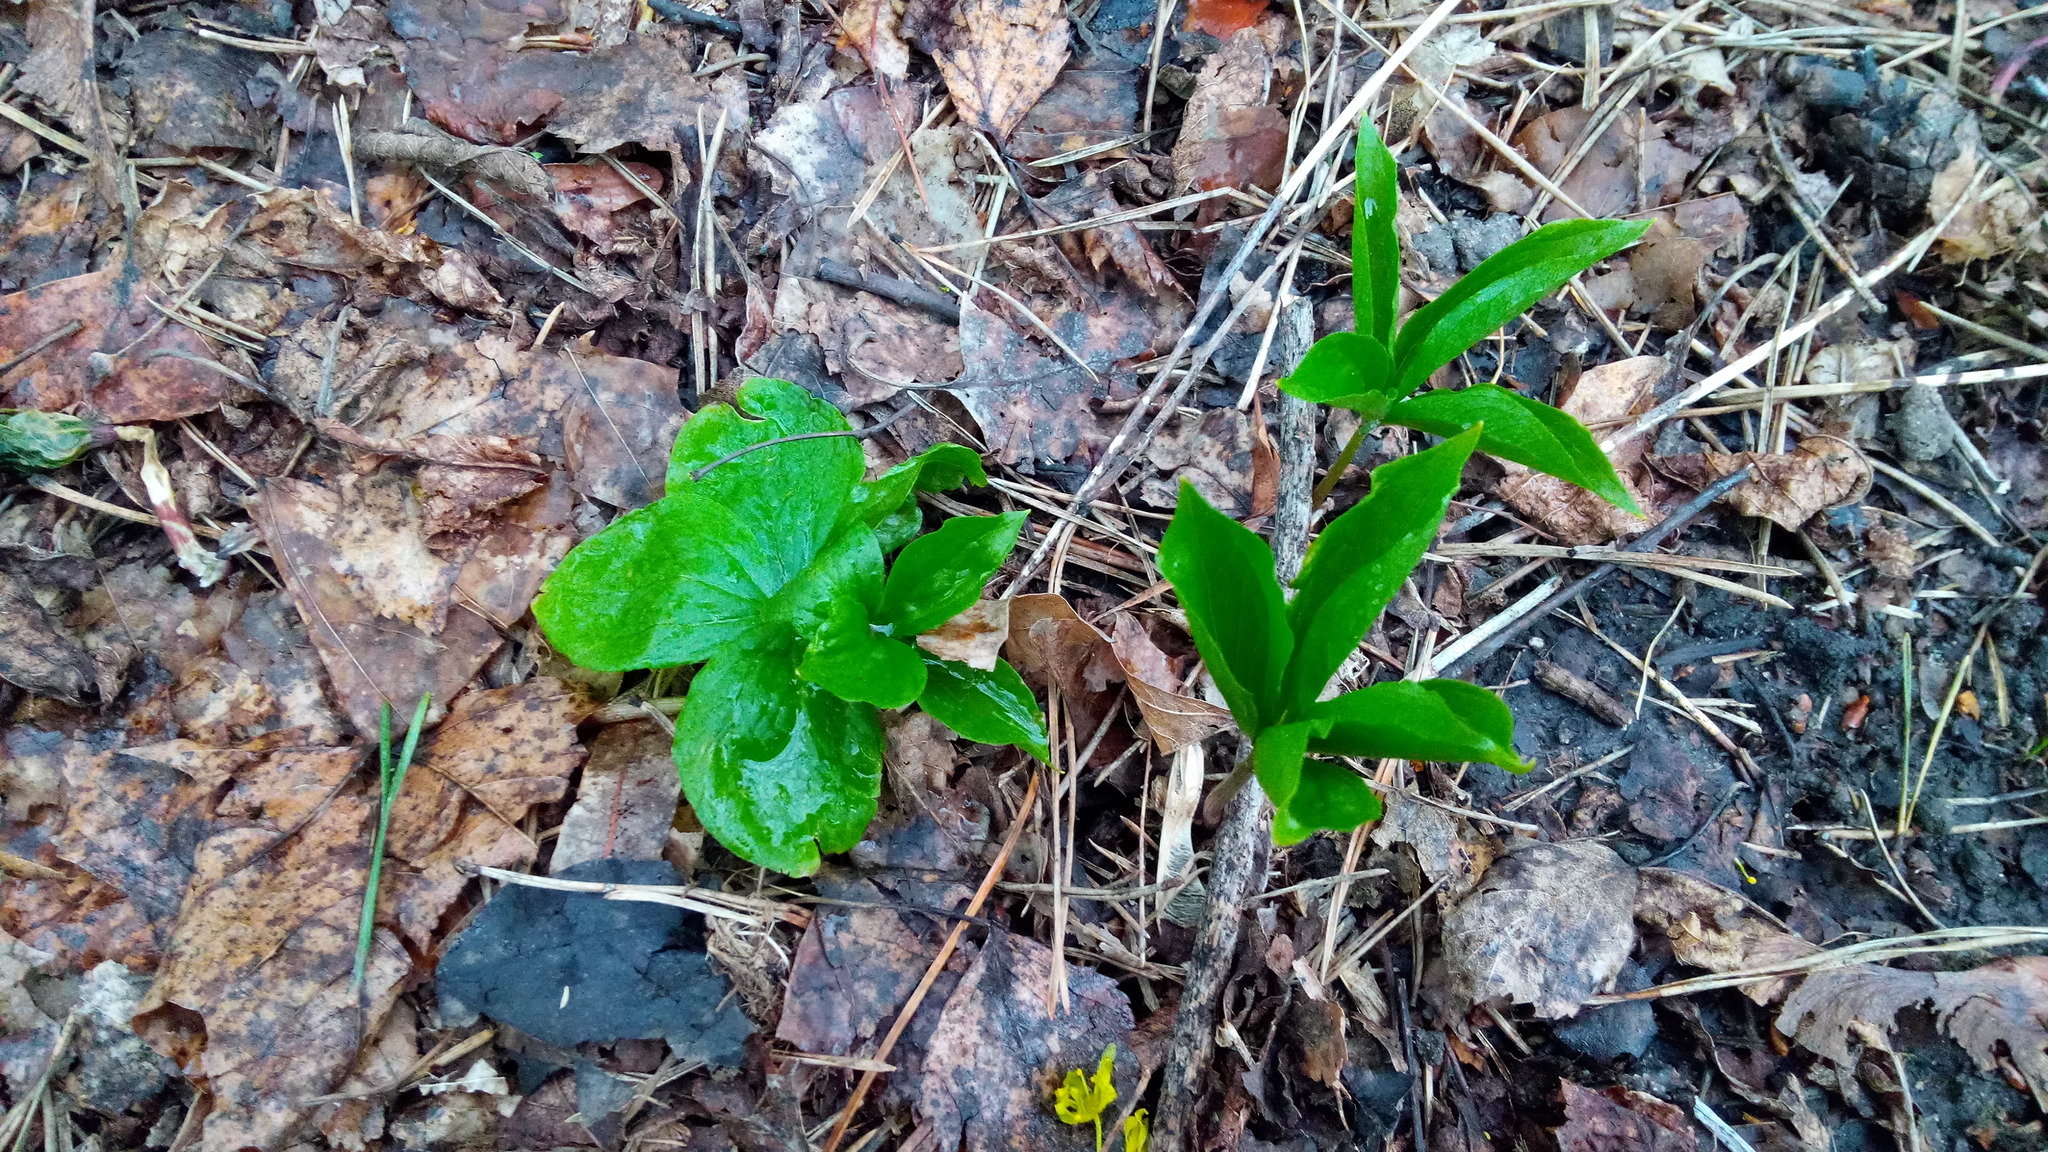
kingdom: Plantae
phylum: Tracheophyta
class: Liliopsida
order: Liliales
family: Melanthiaceae
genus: Paris
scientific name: Paris quadrifolia
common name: Herb-paris
